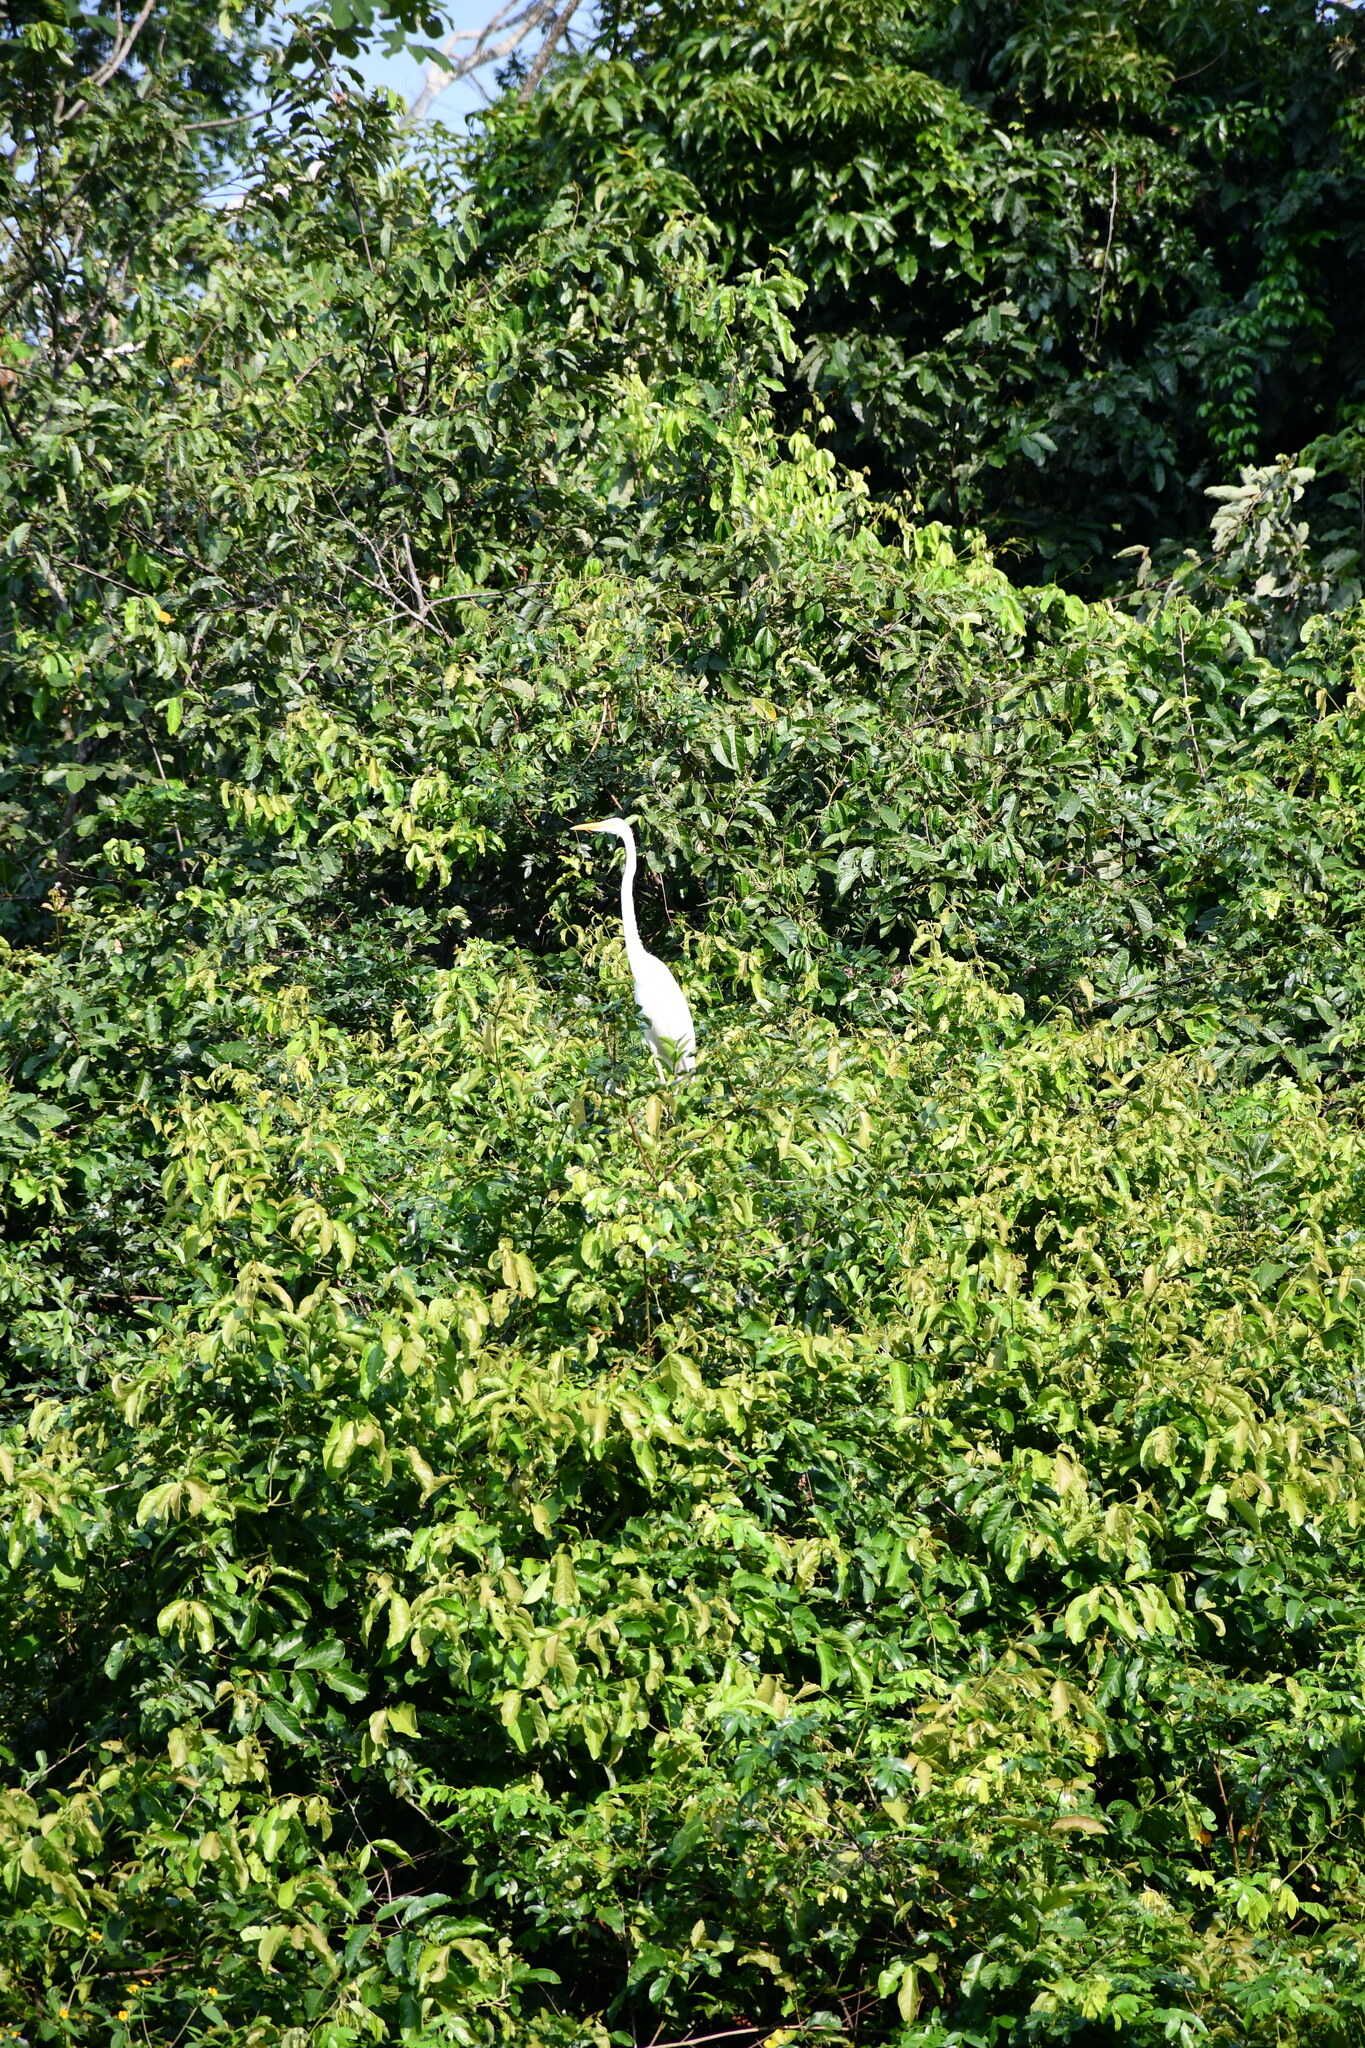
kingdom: Animalia
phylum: Chordata
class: Aves
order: Pelecaniformes
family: Ardeidae
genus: Ardea
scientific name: Ardea alba
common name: Great egret
